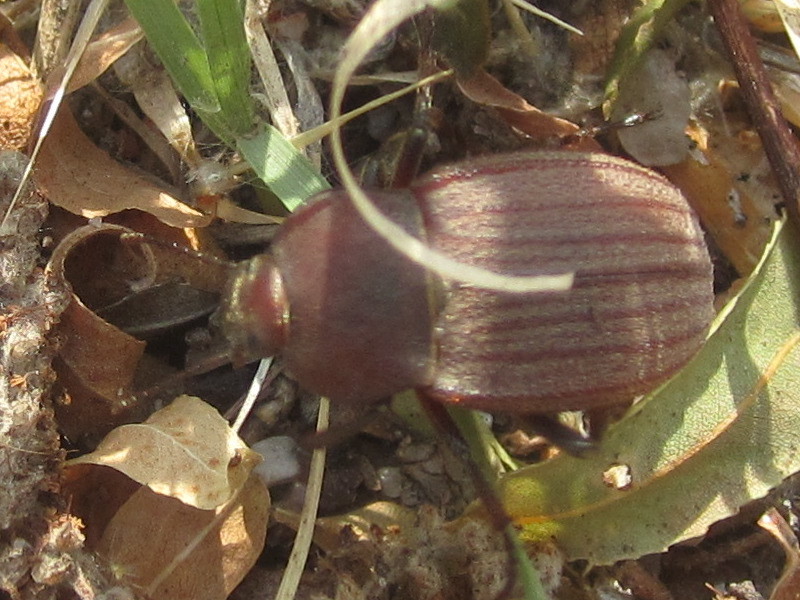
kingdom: Animalia
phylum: Arthropoda
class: Insecta
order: Coleoptera
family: Tenebrionidae
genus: Eleodes
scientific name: Eleodes tricostata
